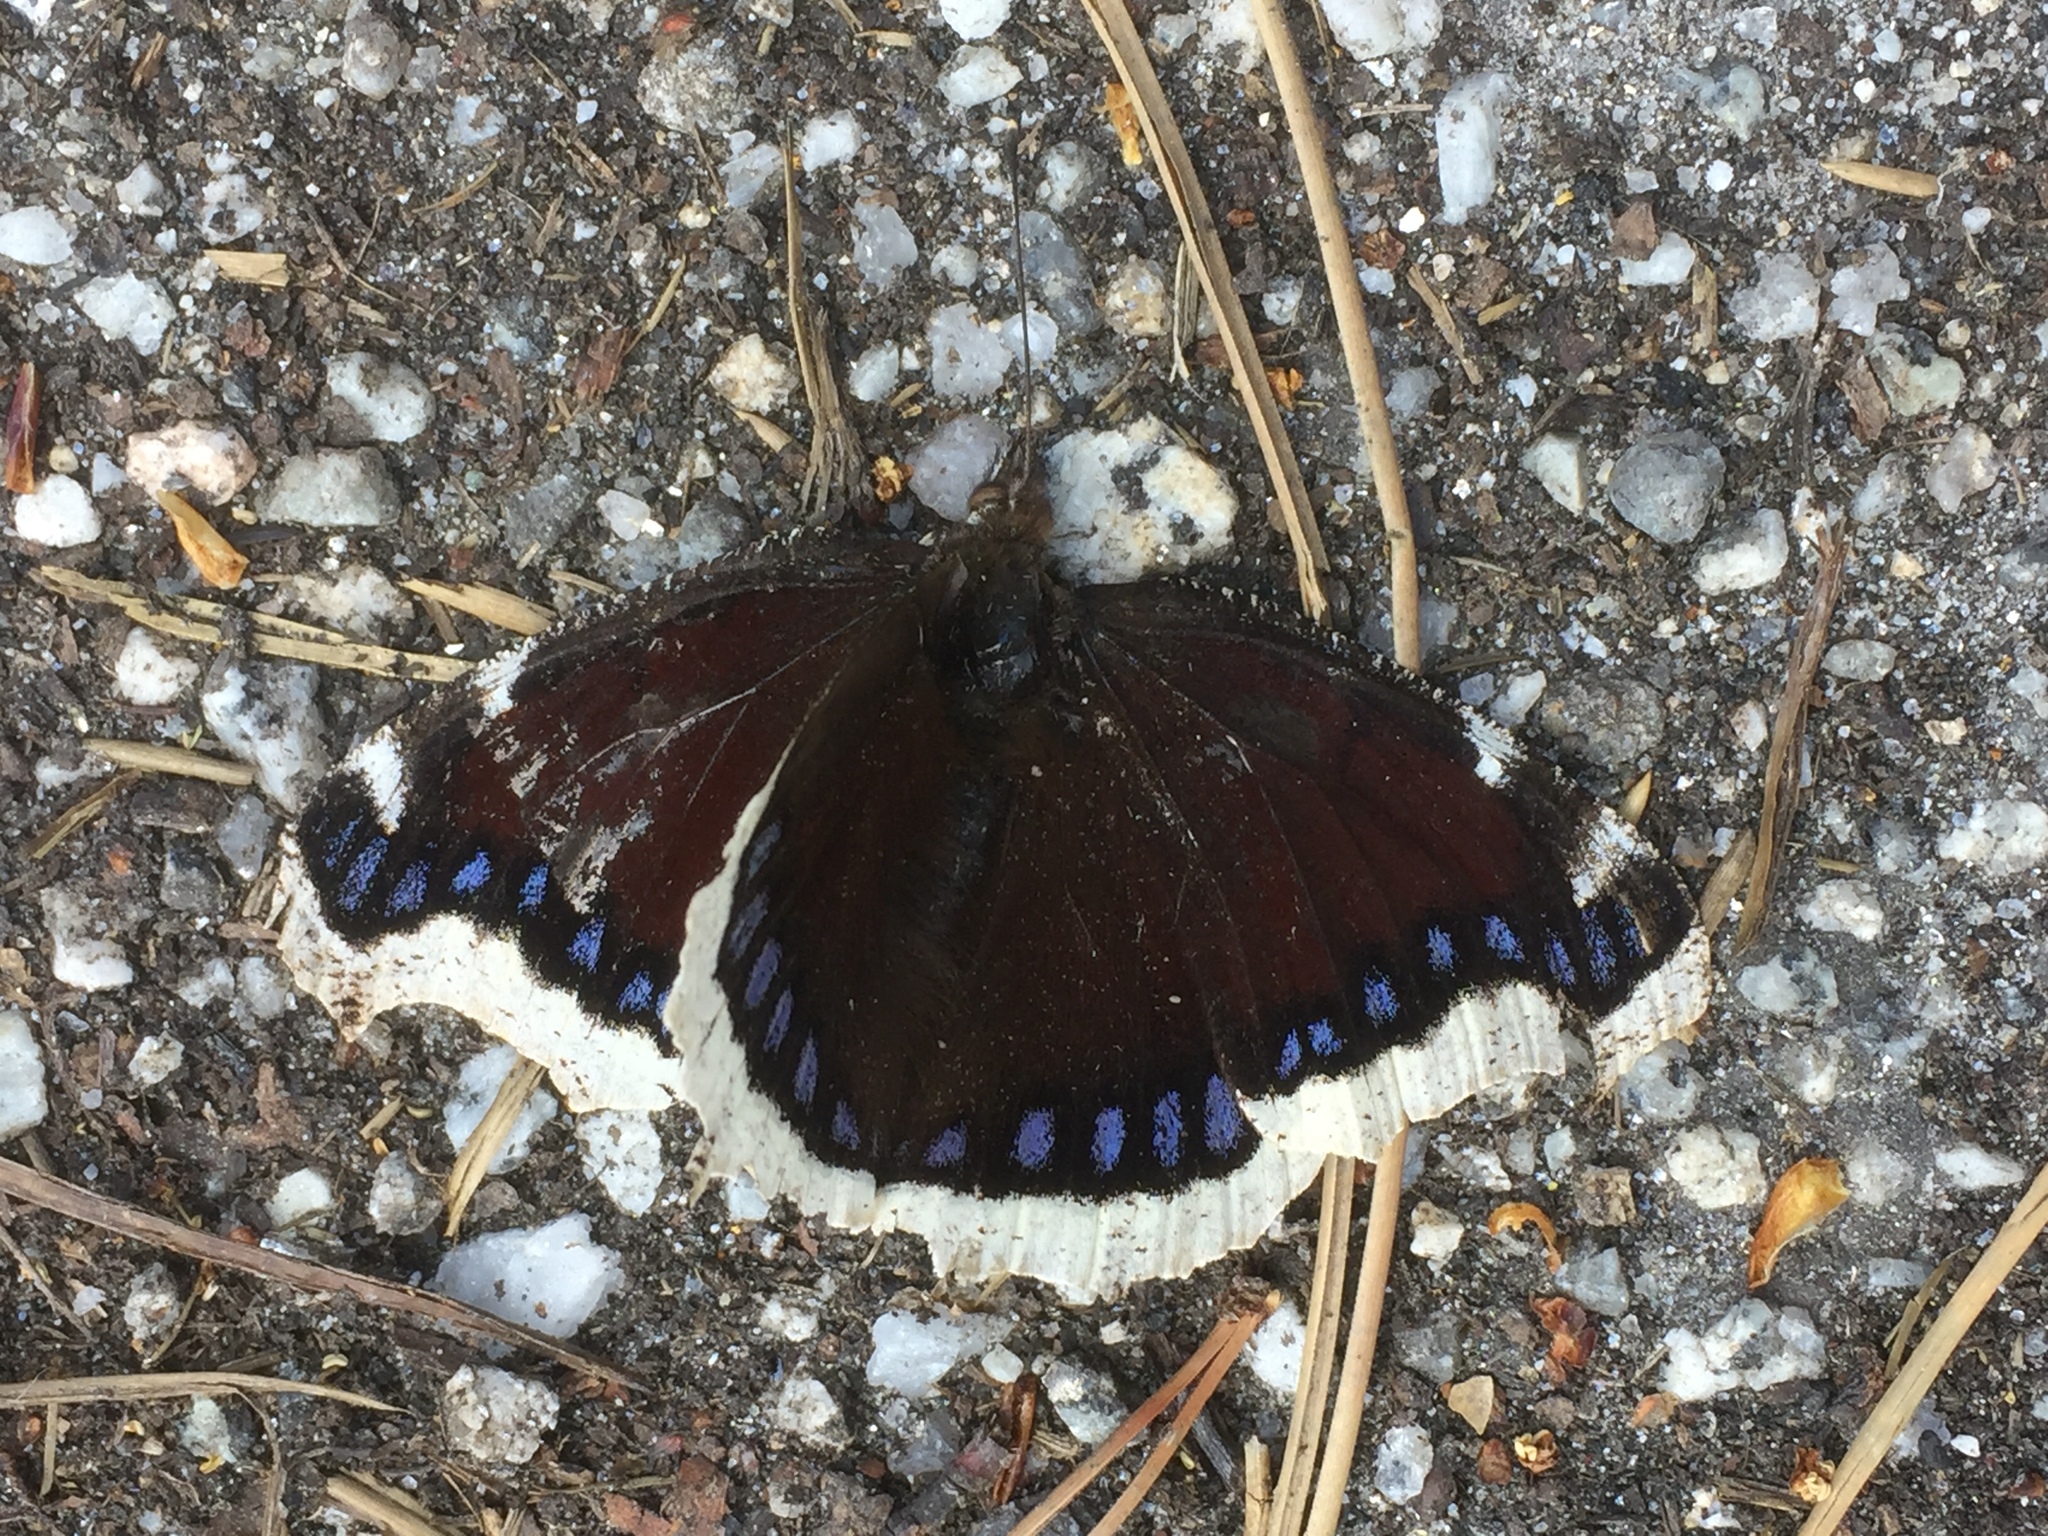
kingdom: Animalia
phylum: Arthropoda
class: Insecta
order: Lepidoptera
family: Nymphalidae
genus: Nymphalis
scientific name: Nymphalis antiopa
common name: Camberwell beauty
